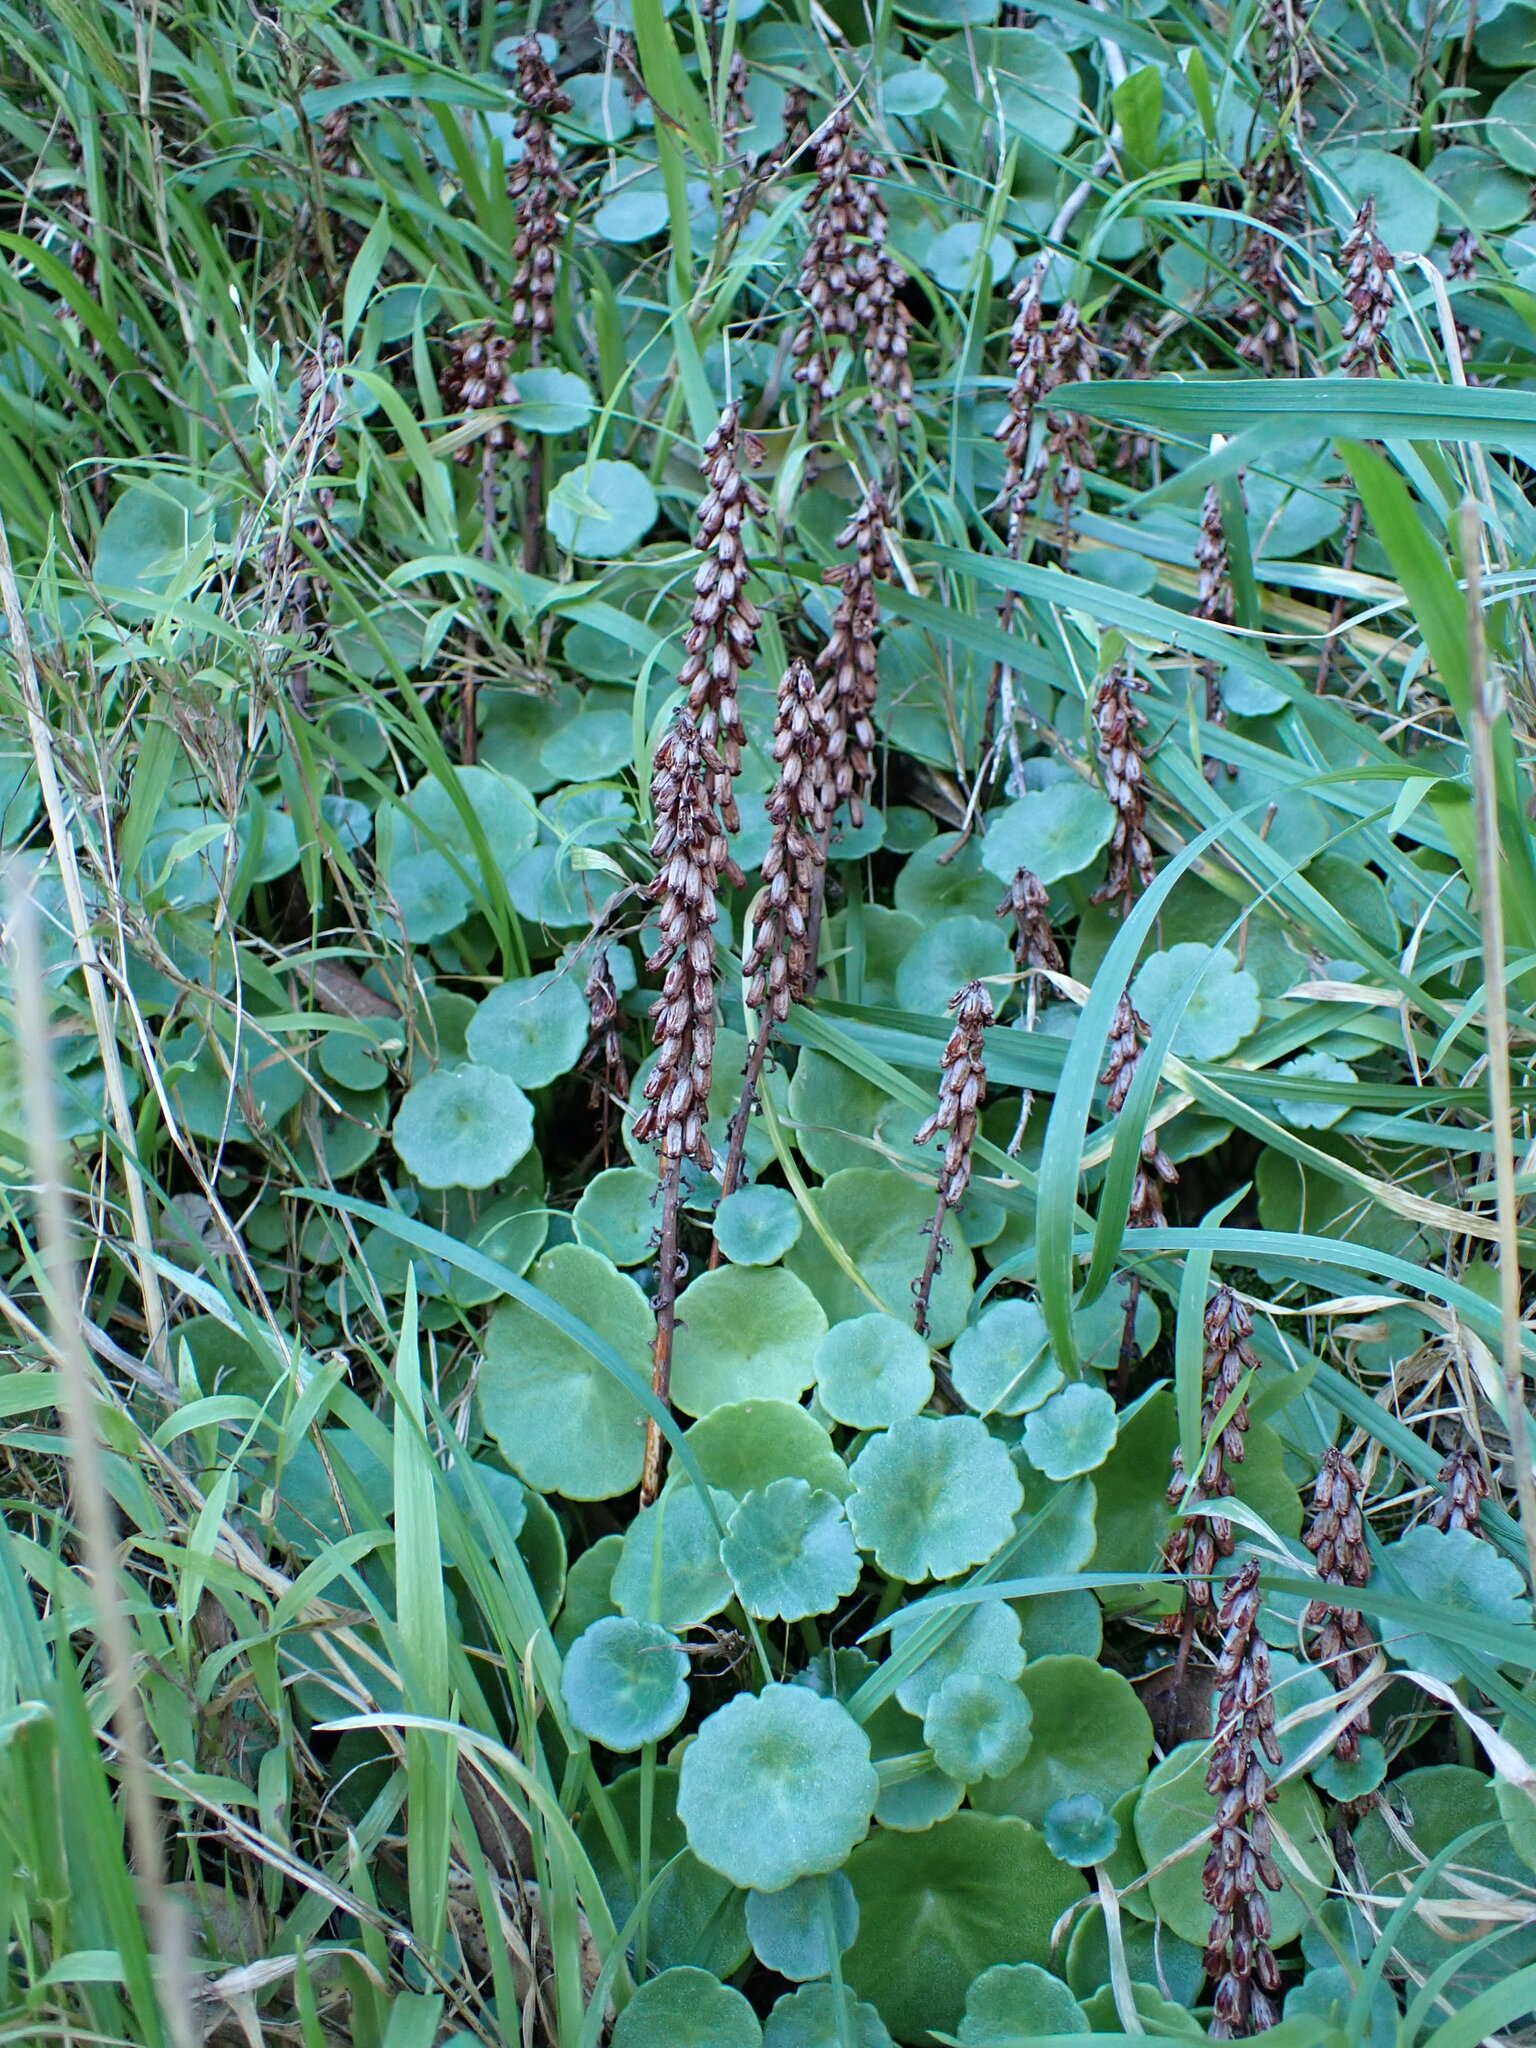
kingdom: Plantae
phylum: Tracheophyta
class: Magnoliopsida
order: Saxifragales
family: Crassulaceae
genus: Umbilicus
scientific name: Umbilicus rupestris
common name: Navelwort
